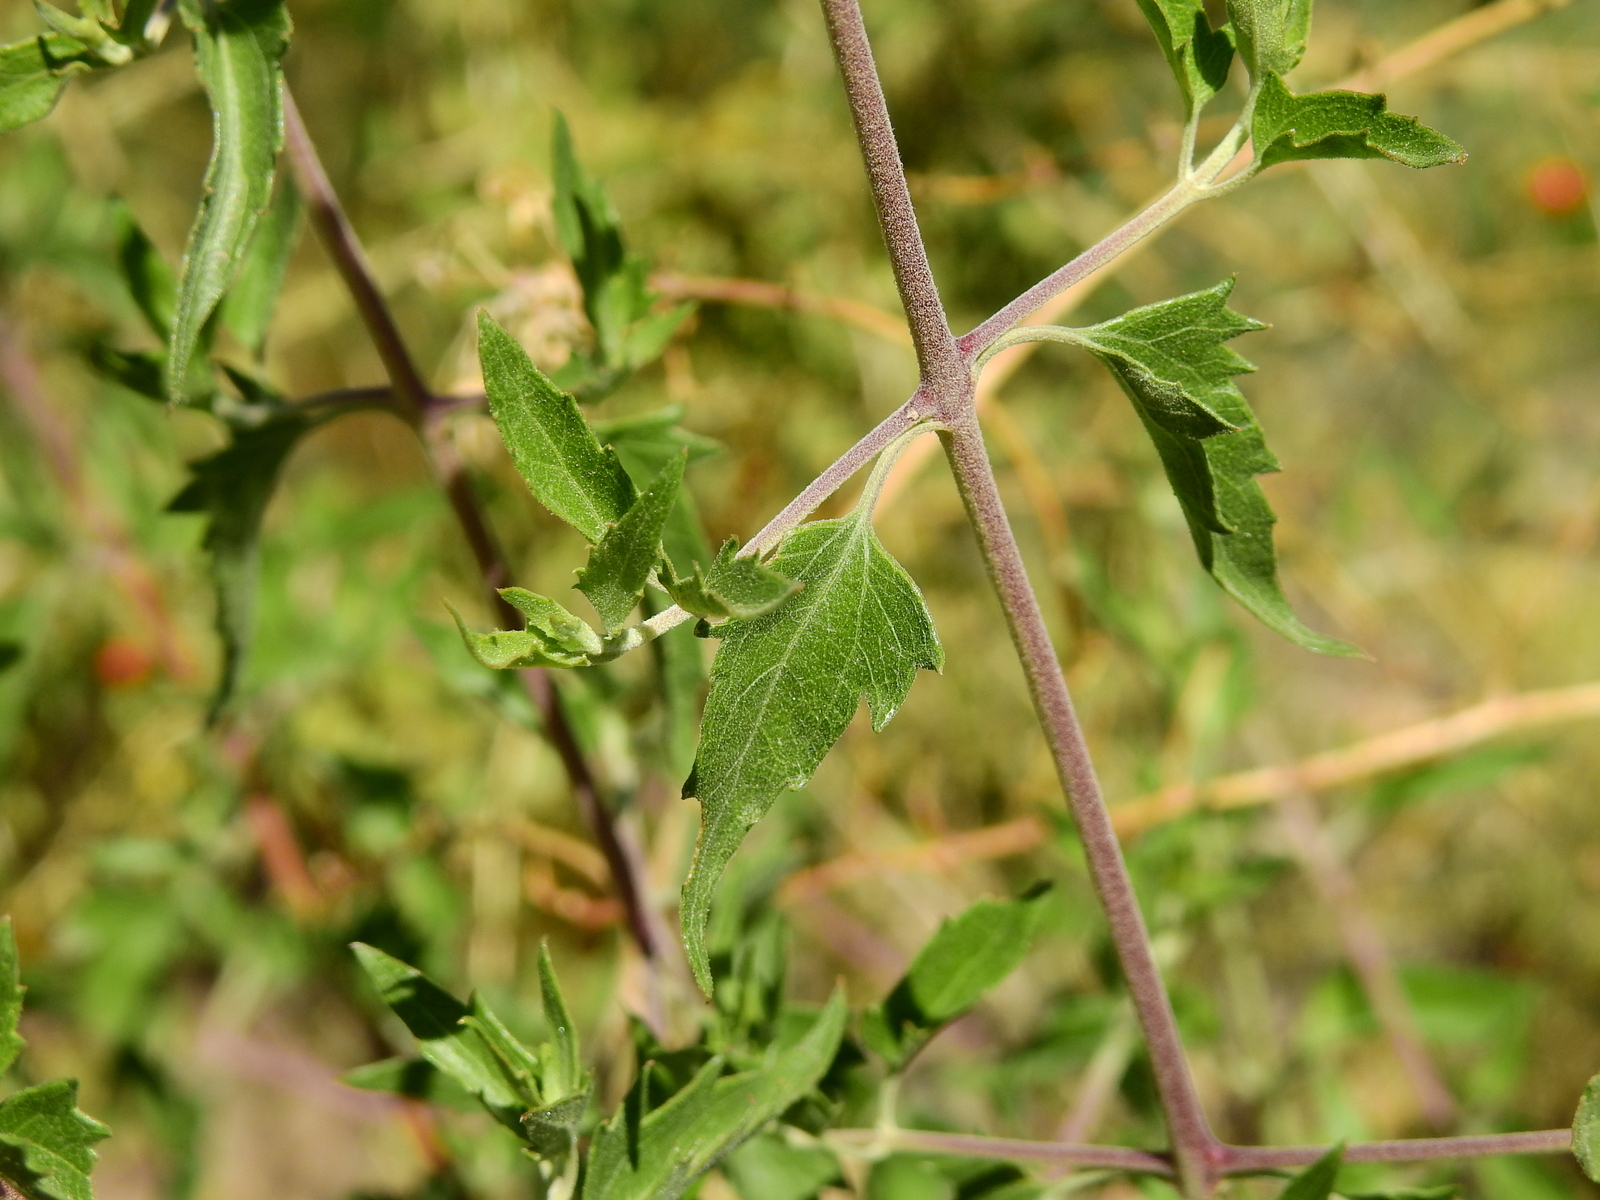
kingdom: Plantae
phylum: Tracheophyta
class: Magnoliopsida
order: Asterales
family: Asteraceae
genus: Austrobrickellia
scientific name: Austrobrickellia patens
